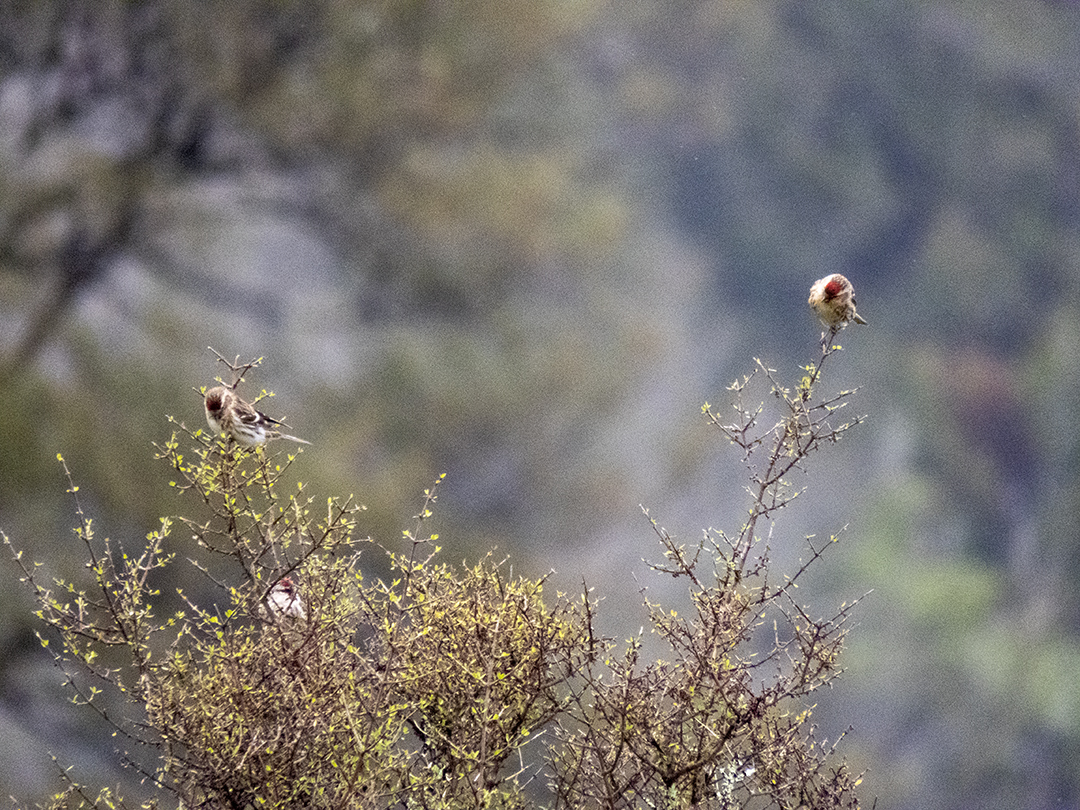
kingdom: Animalia
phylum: Chordata
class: Aves
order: Passeriformes
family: Fringillidae
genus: Acanthis
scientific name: Acanthis flammea
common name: Common redpoll
